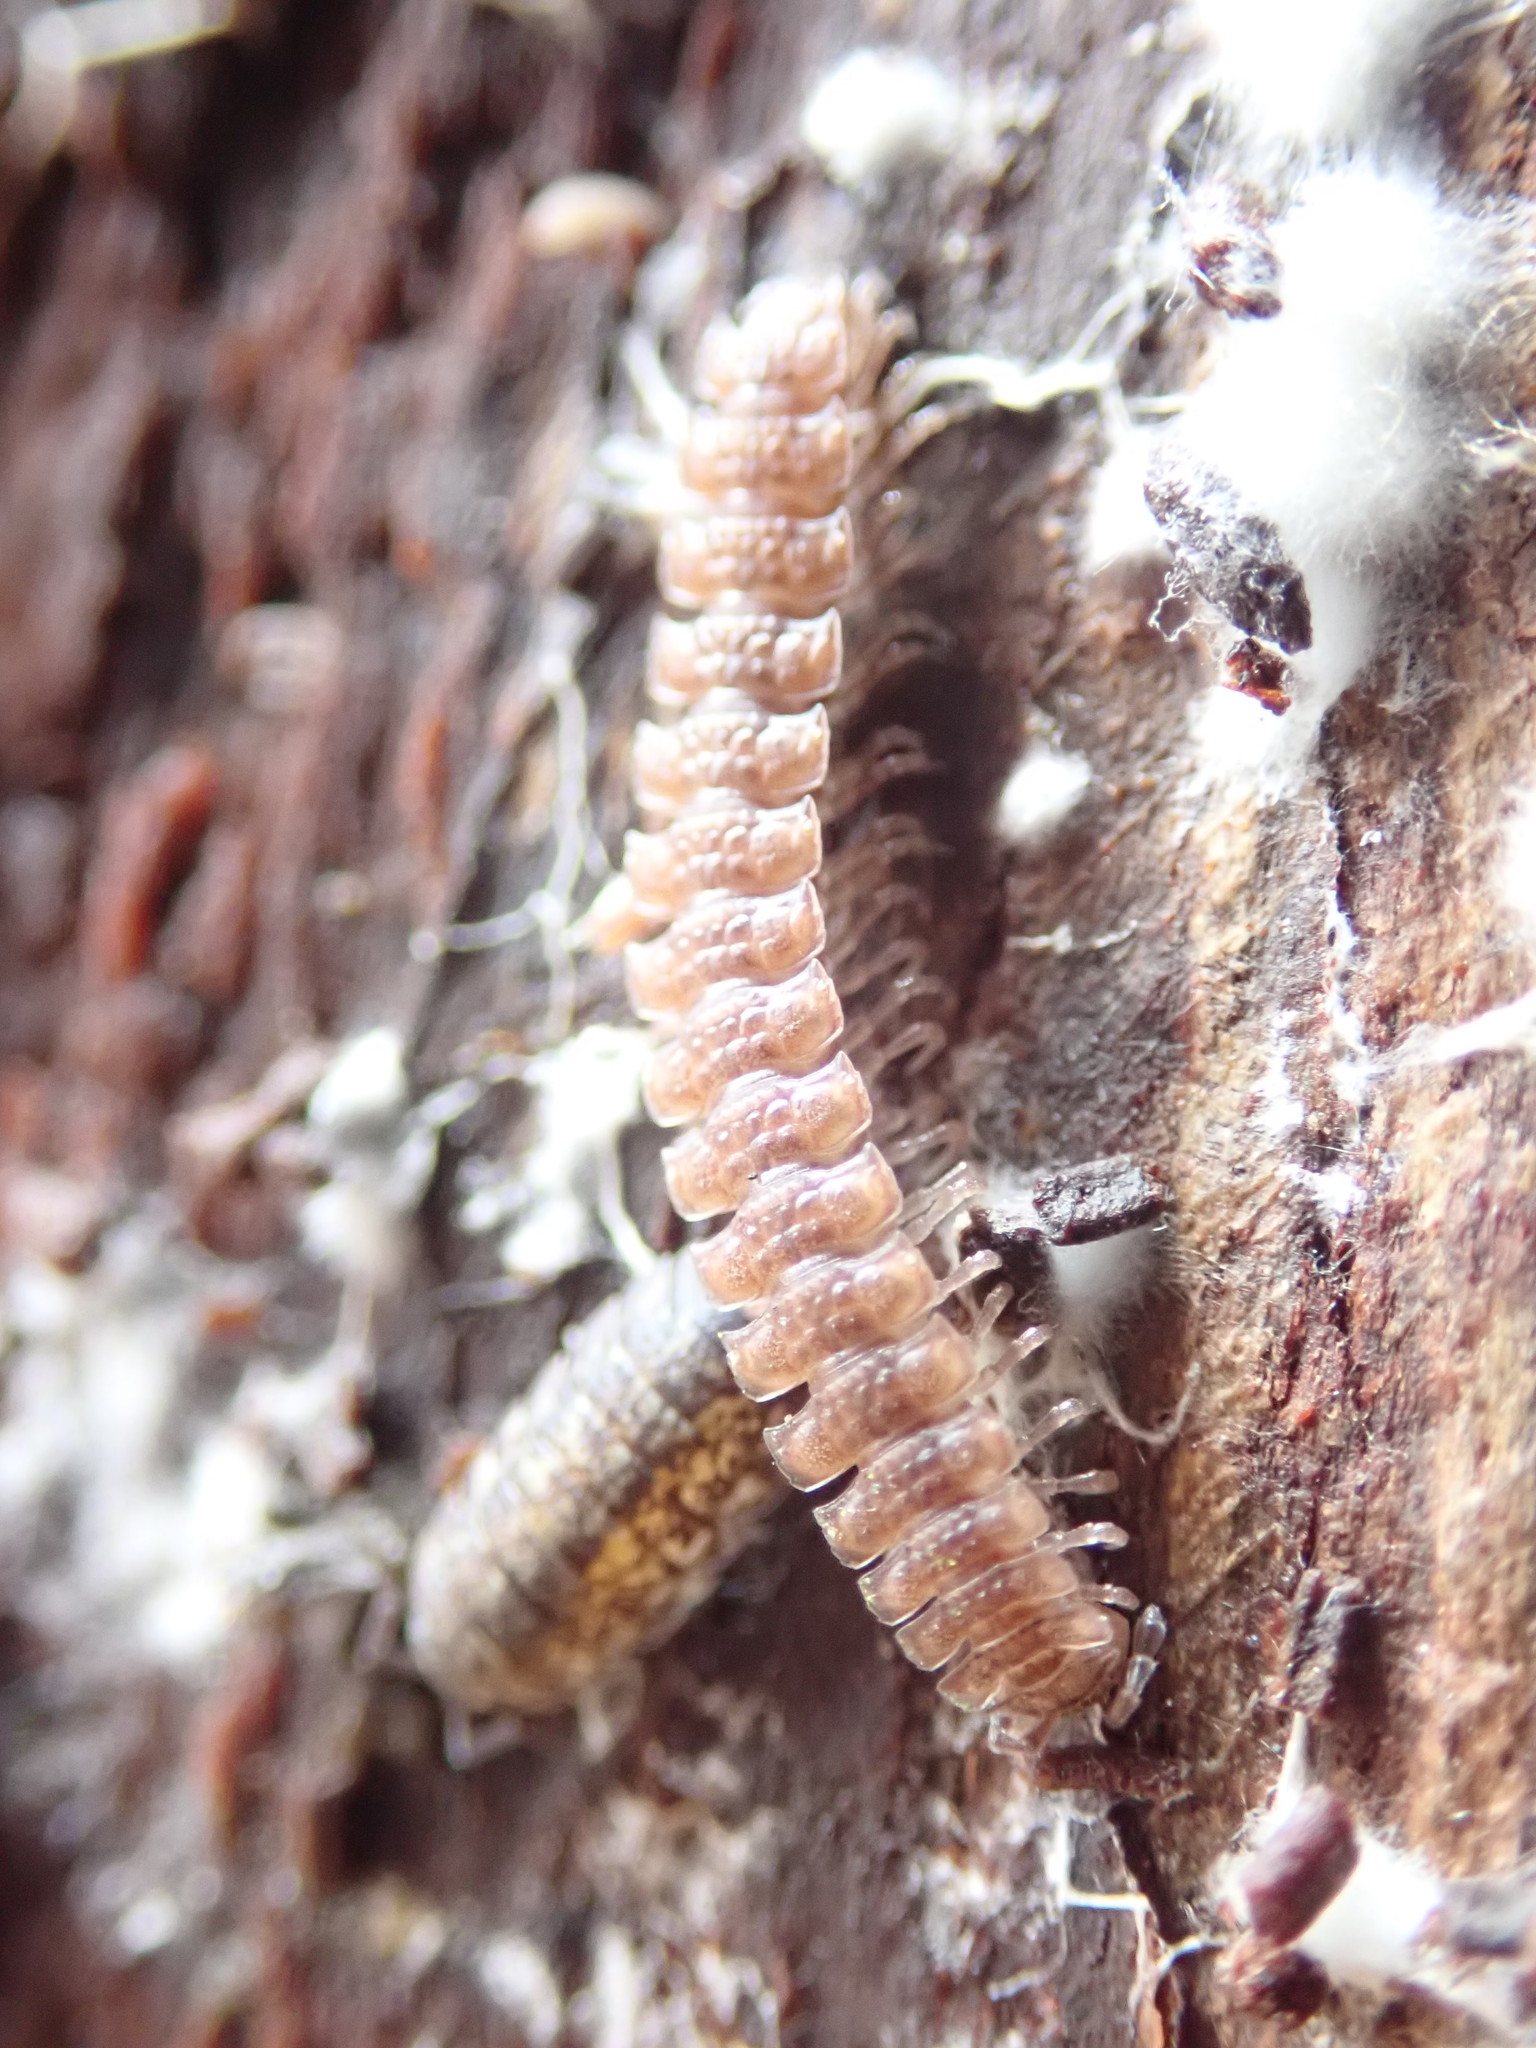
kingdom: Animalia
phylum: Arthropoda
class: Diplopoda
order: Polydesmida
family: Polydesmidae
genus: Polydesmus
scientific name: Polydesmus angustus
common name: Flat millipede
